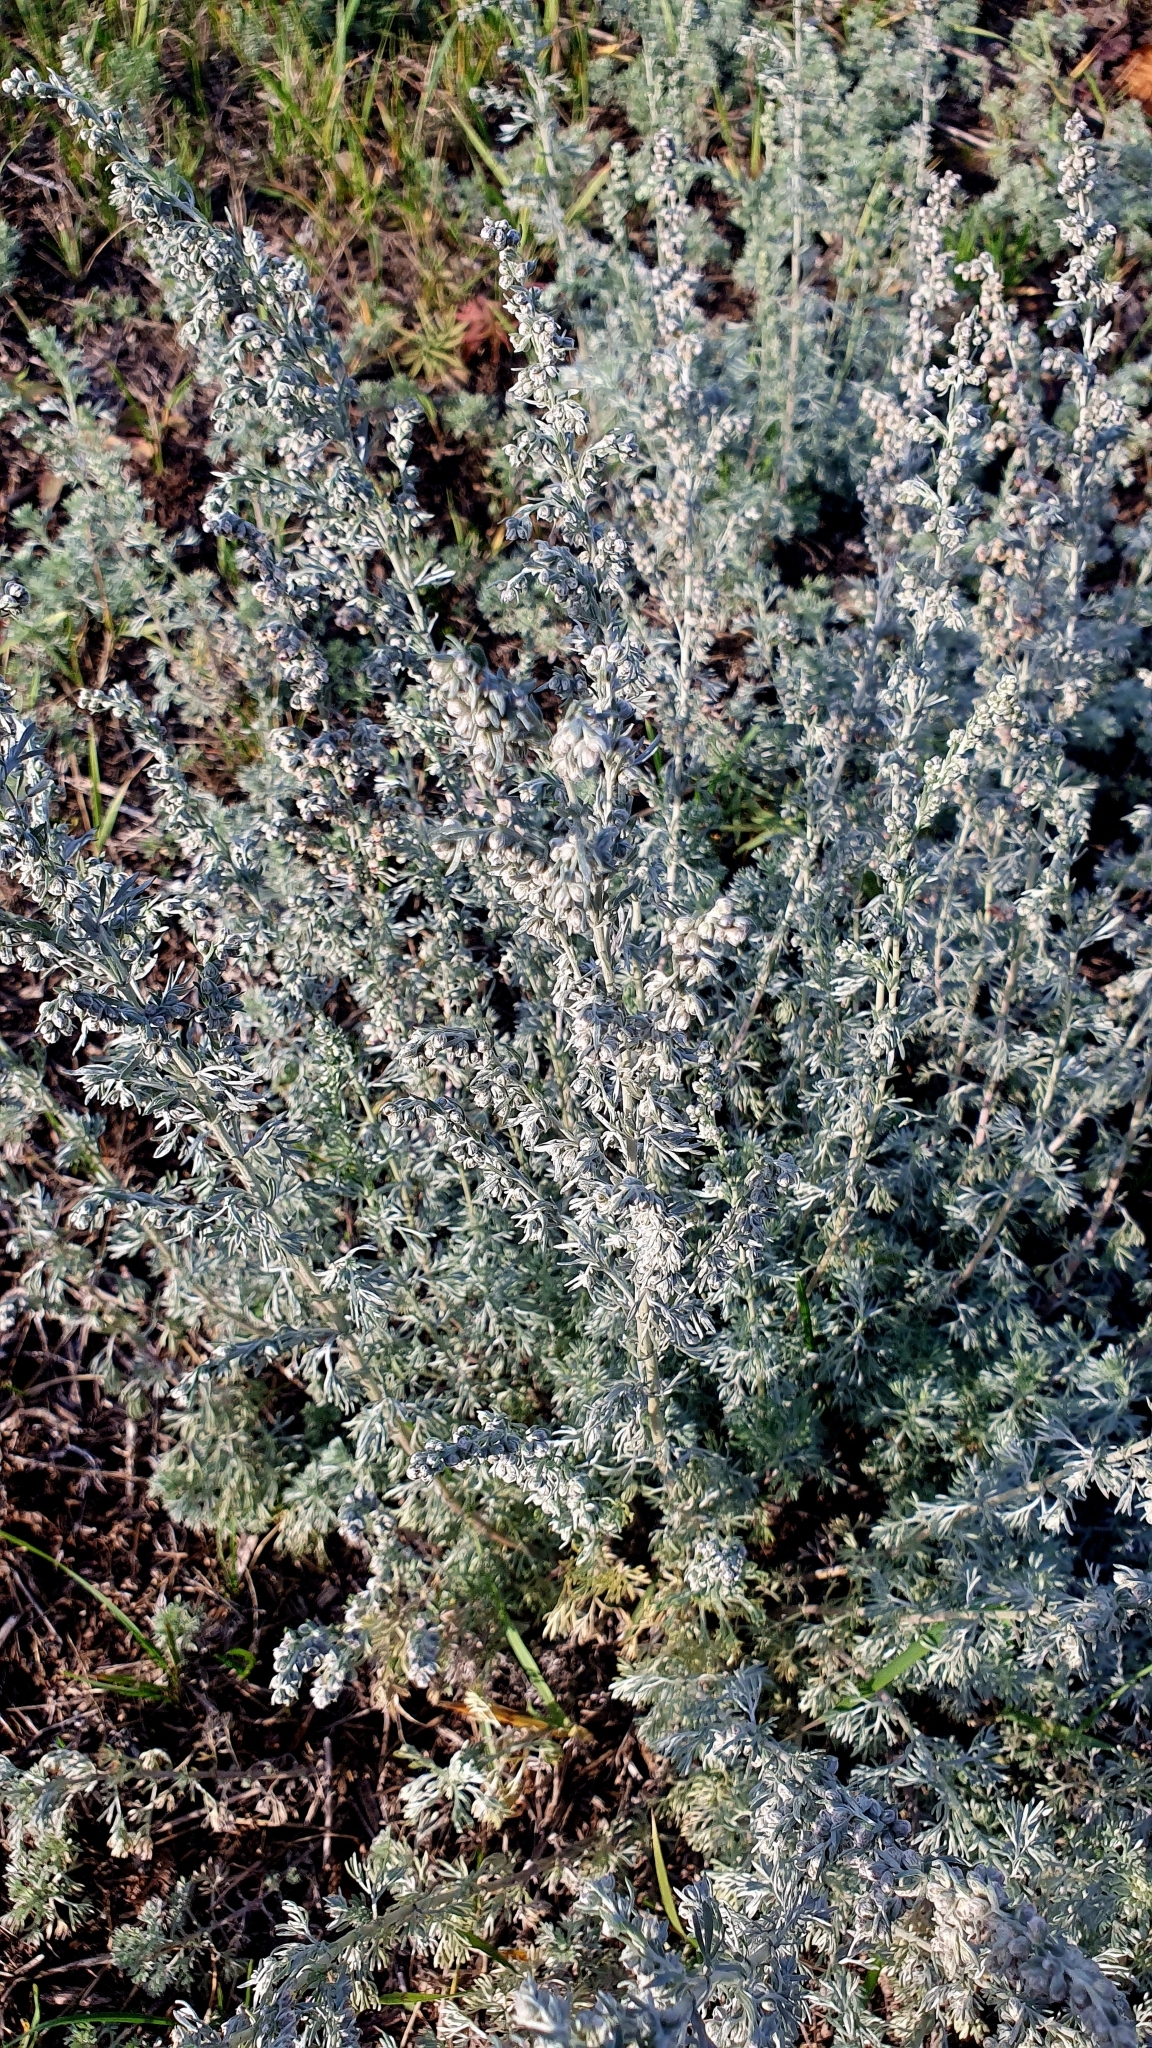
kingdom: Plantae
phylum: Tracheophyta
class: Magnoliopsida
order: Asterales
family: Asteraceae
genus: Artemisia
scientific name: Artemisia austriaca
